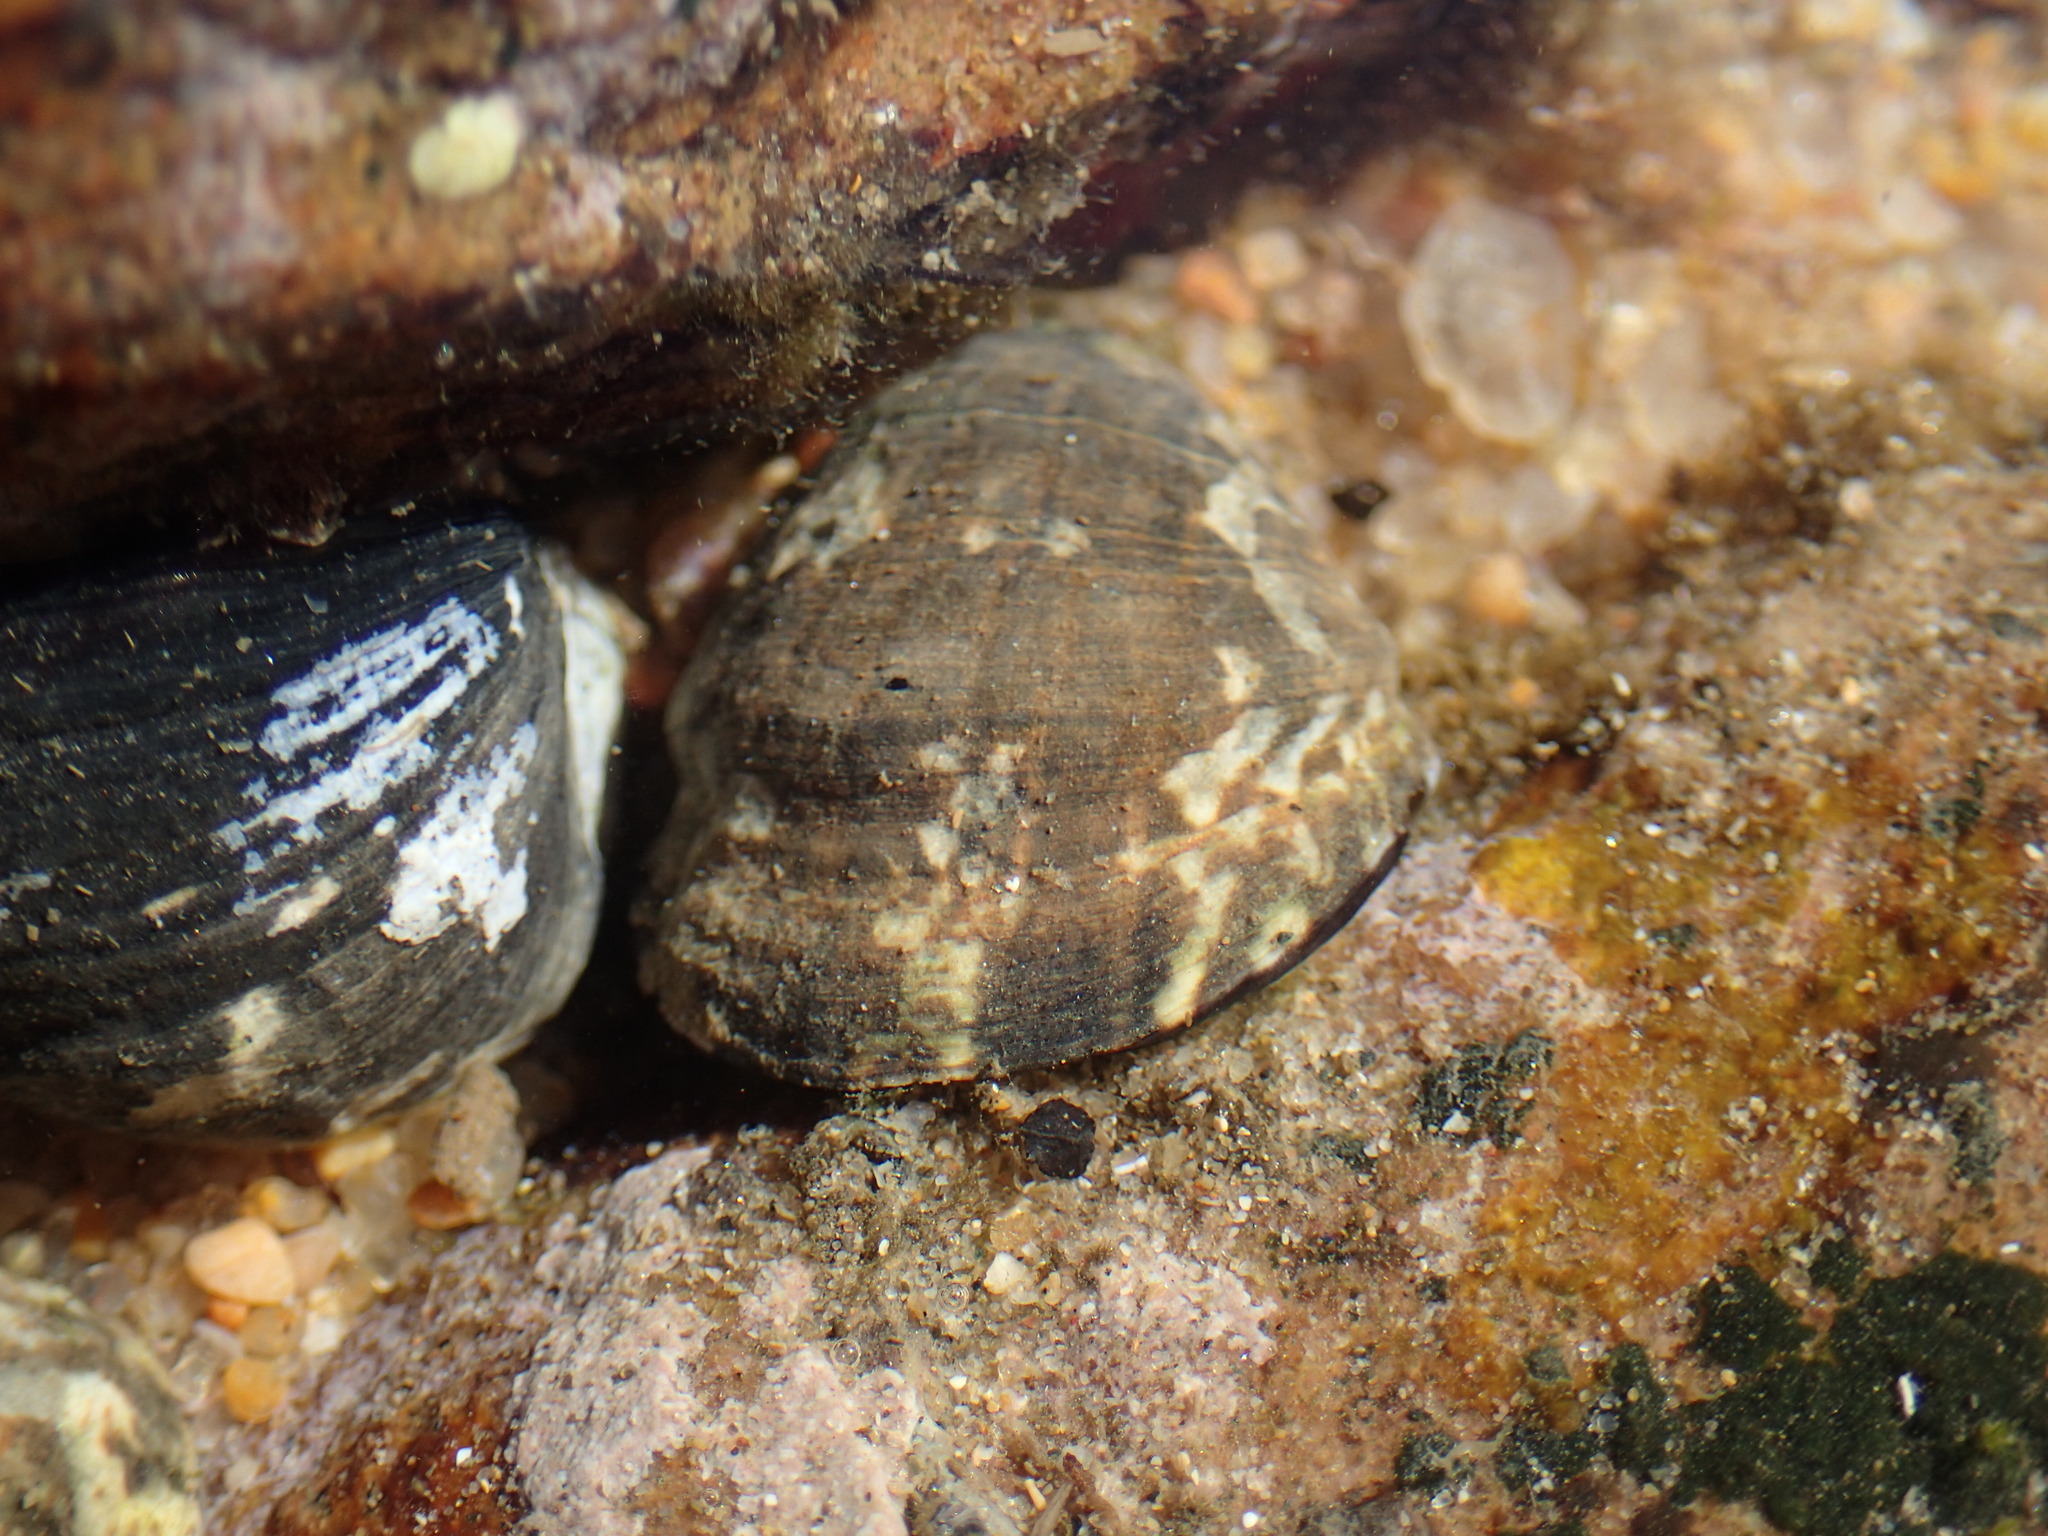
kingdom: Animalia
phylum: Mollusca
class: Gastropoda
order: Cycloneritida
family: Neritidae
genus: Nerita
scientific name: Nerita albicilla
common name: Blotched nerite
